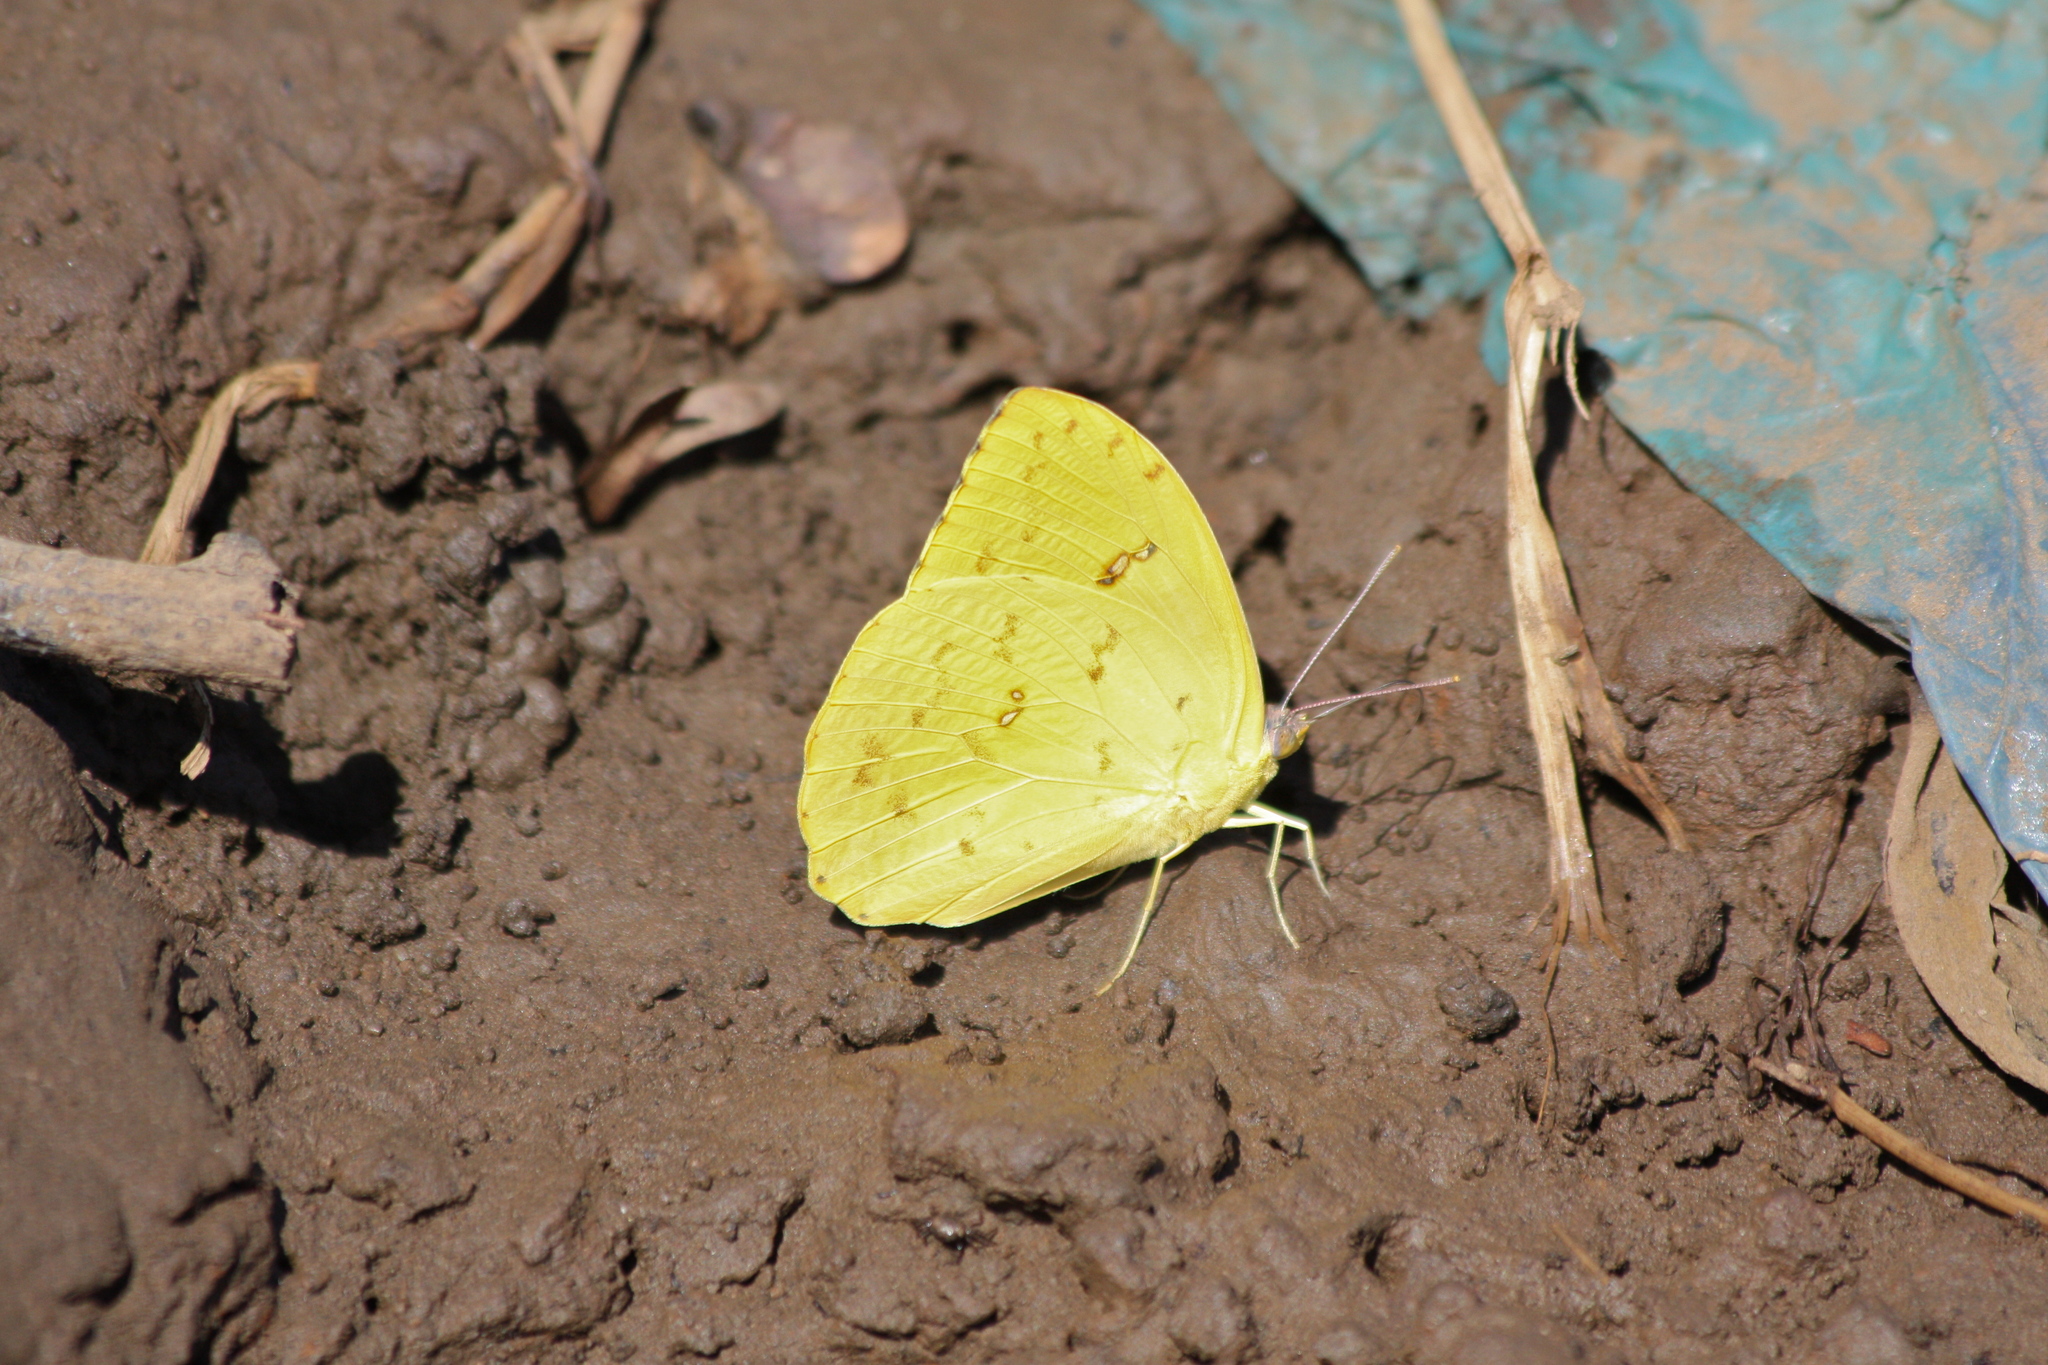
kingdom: Animalia
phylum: Arthropoda
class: Insecta
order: Lepidoptera
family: Pieridae
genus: Phoebis
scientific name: Phoebis sennae
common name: Cloudless sulphur
